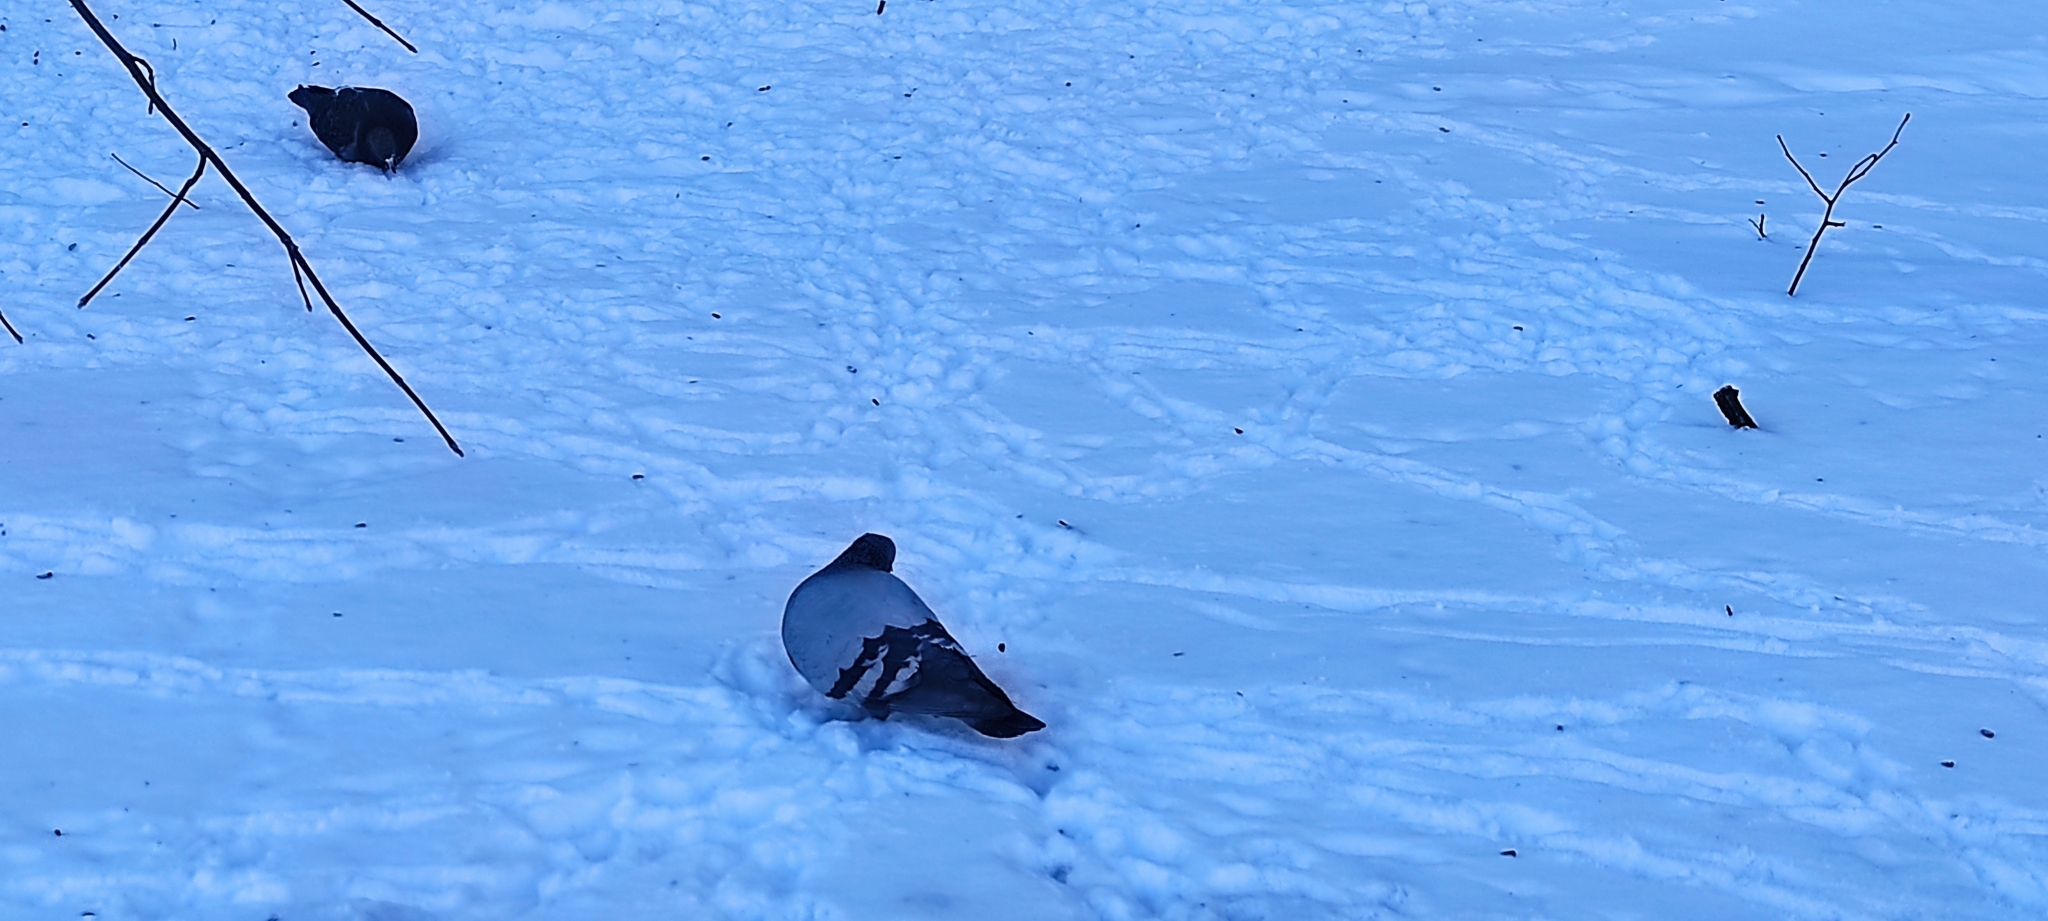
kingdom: Animalia
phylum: Chordata
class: Aves
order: Columbiformes
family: Columbidae
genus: Columba
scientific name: Columba livia
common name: Rock pigeon
